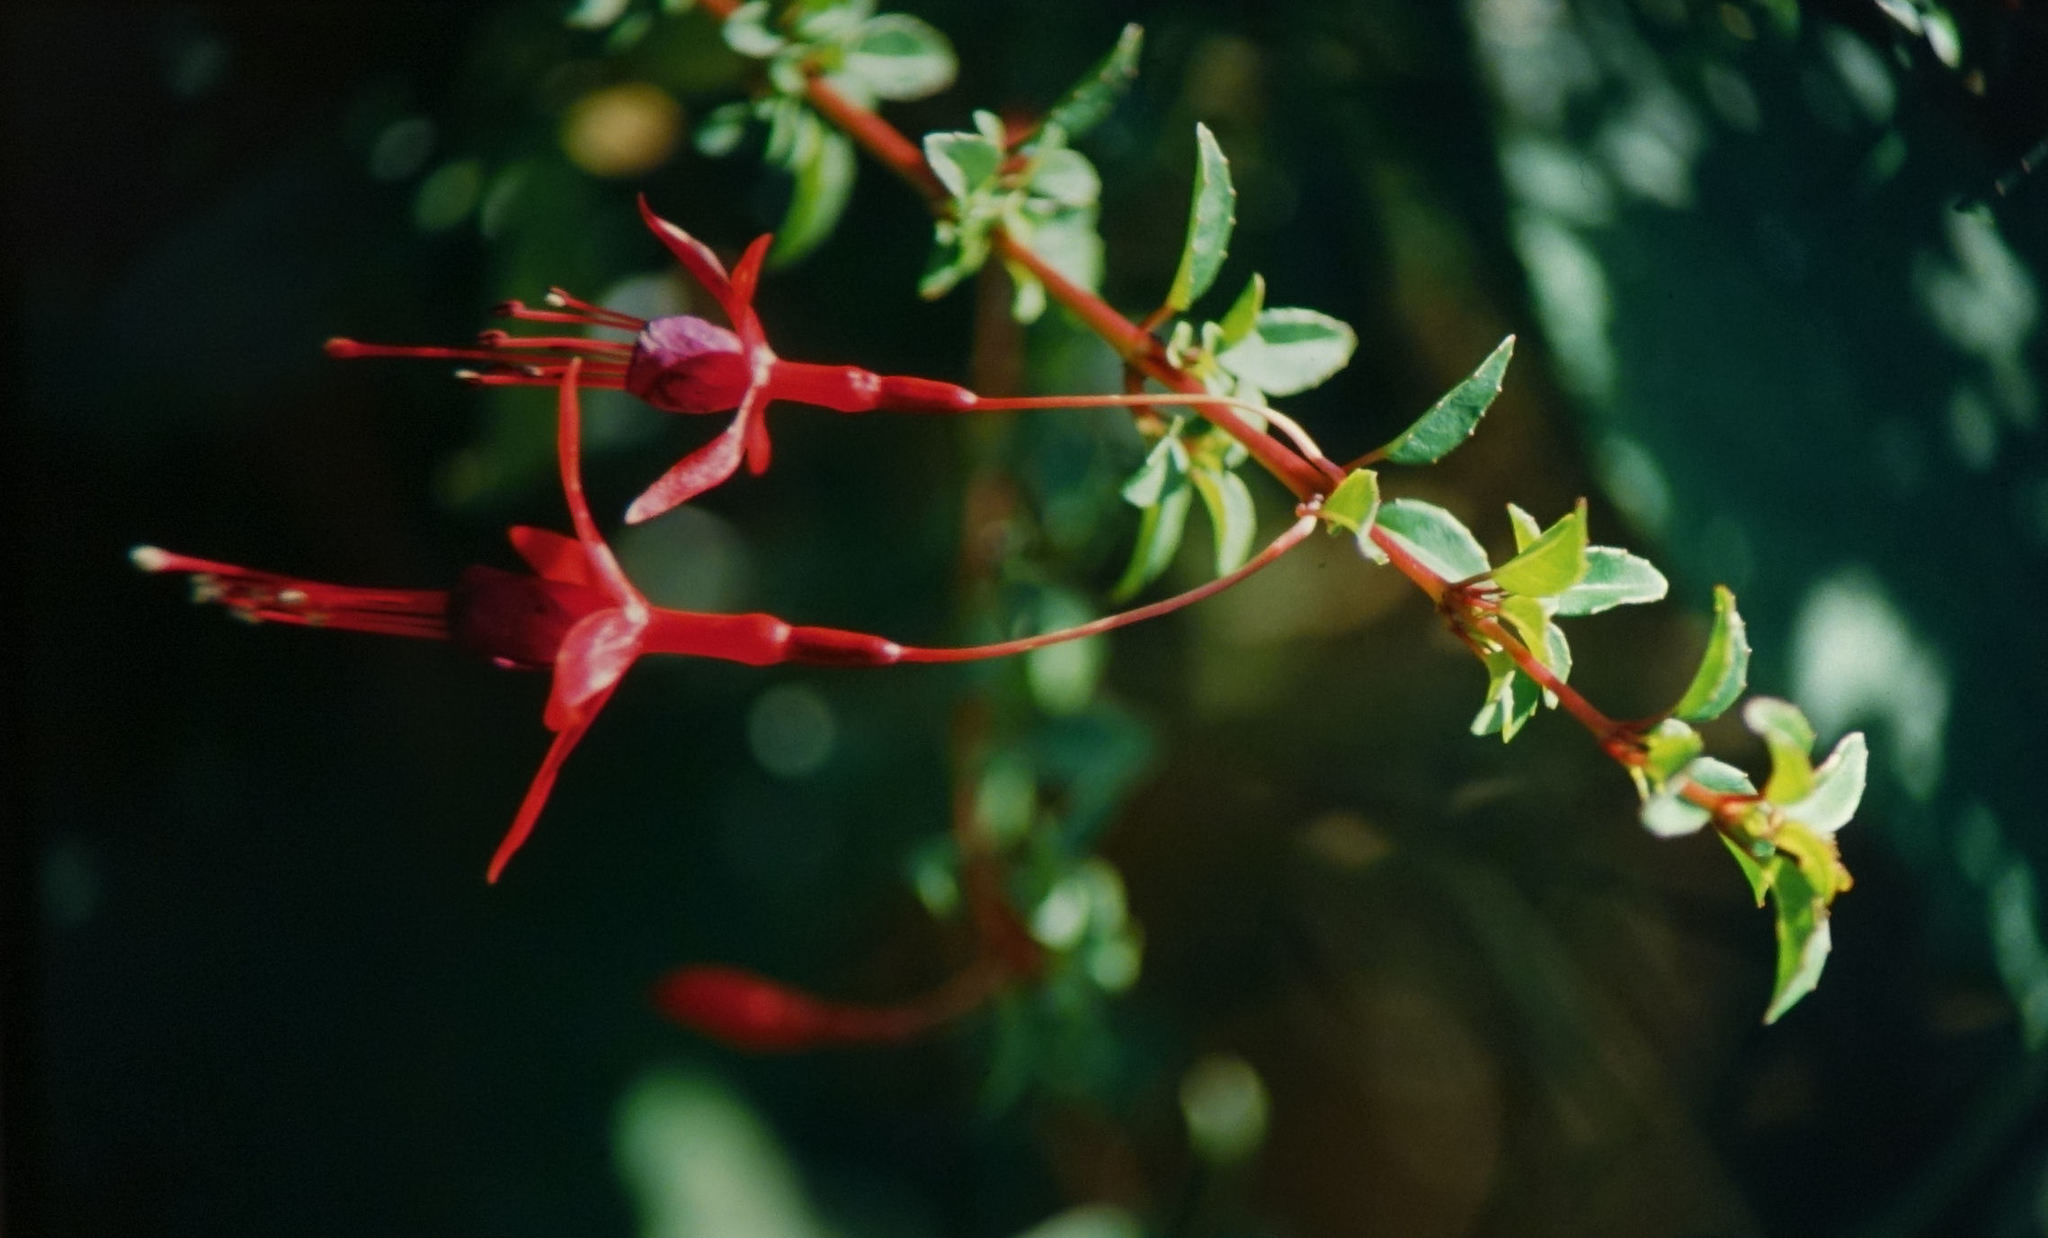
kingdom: Plantae
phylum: Tracheophyta
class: Magnoliopsida
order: Myrtales
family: Onagraceae
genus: Fuchsia
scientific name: Fuchsia magellanica
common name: Hardy fuchsia
